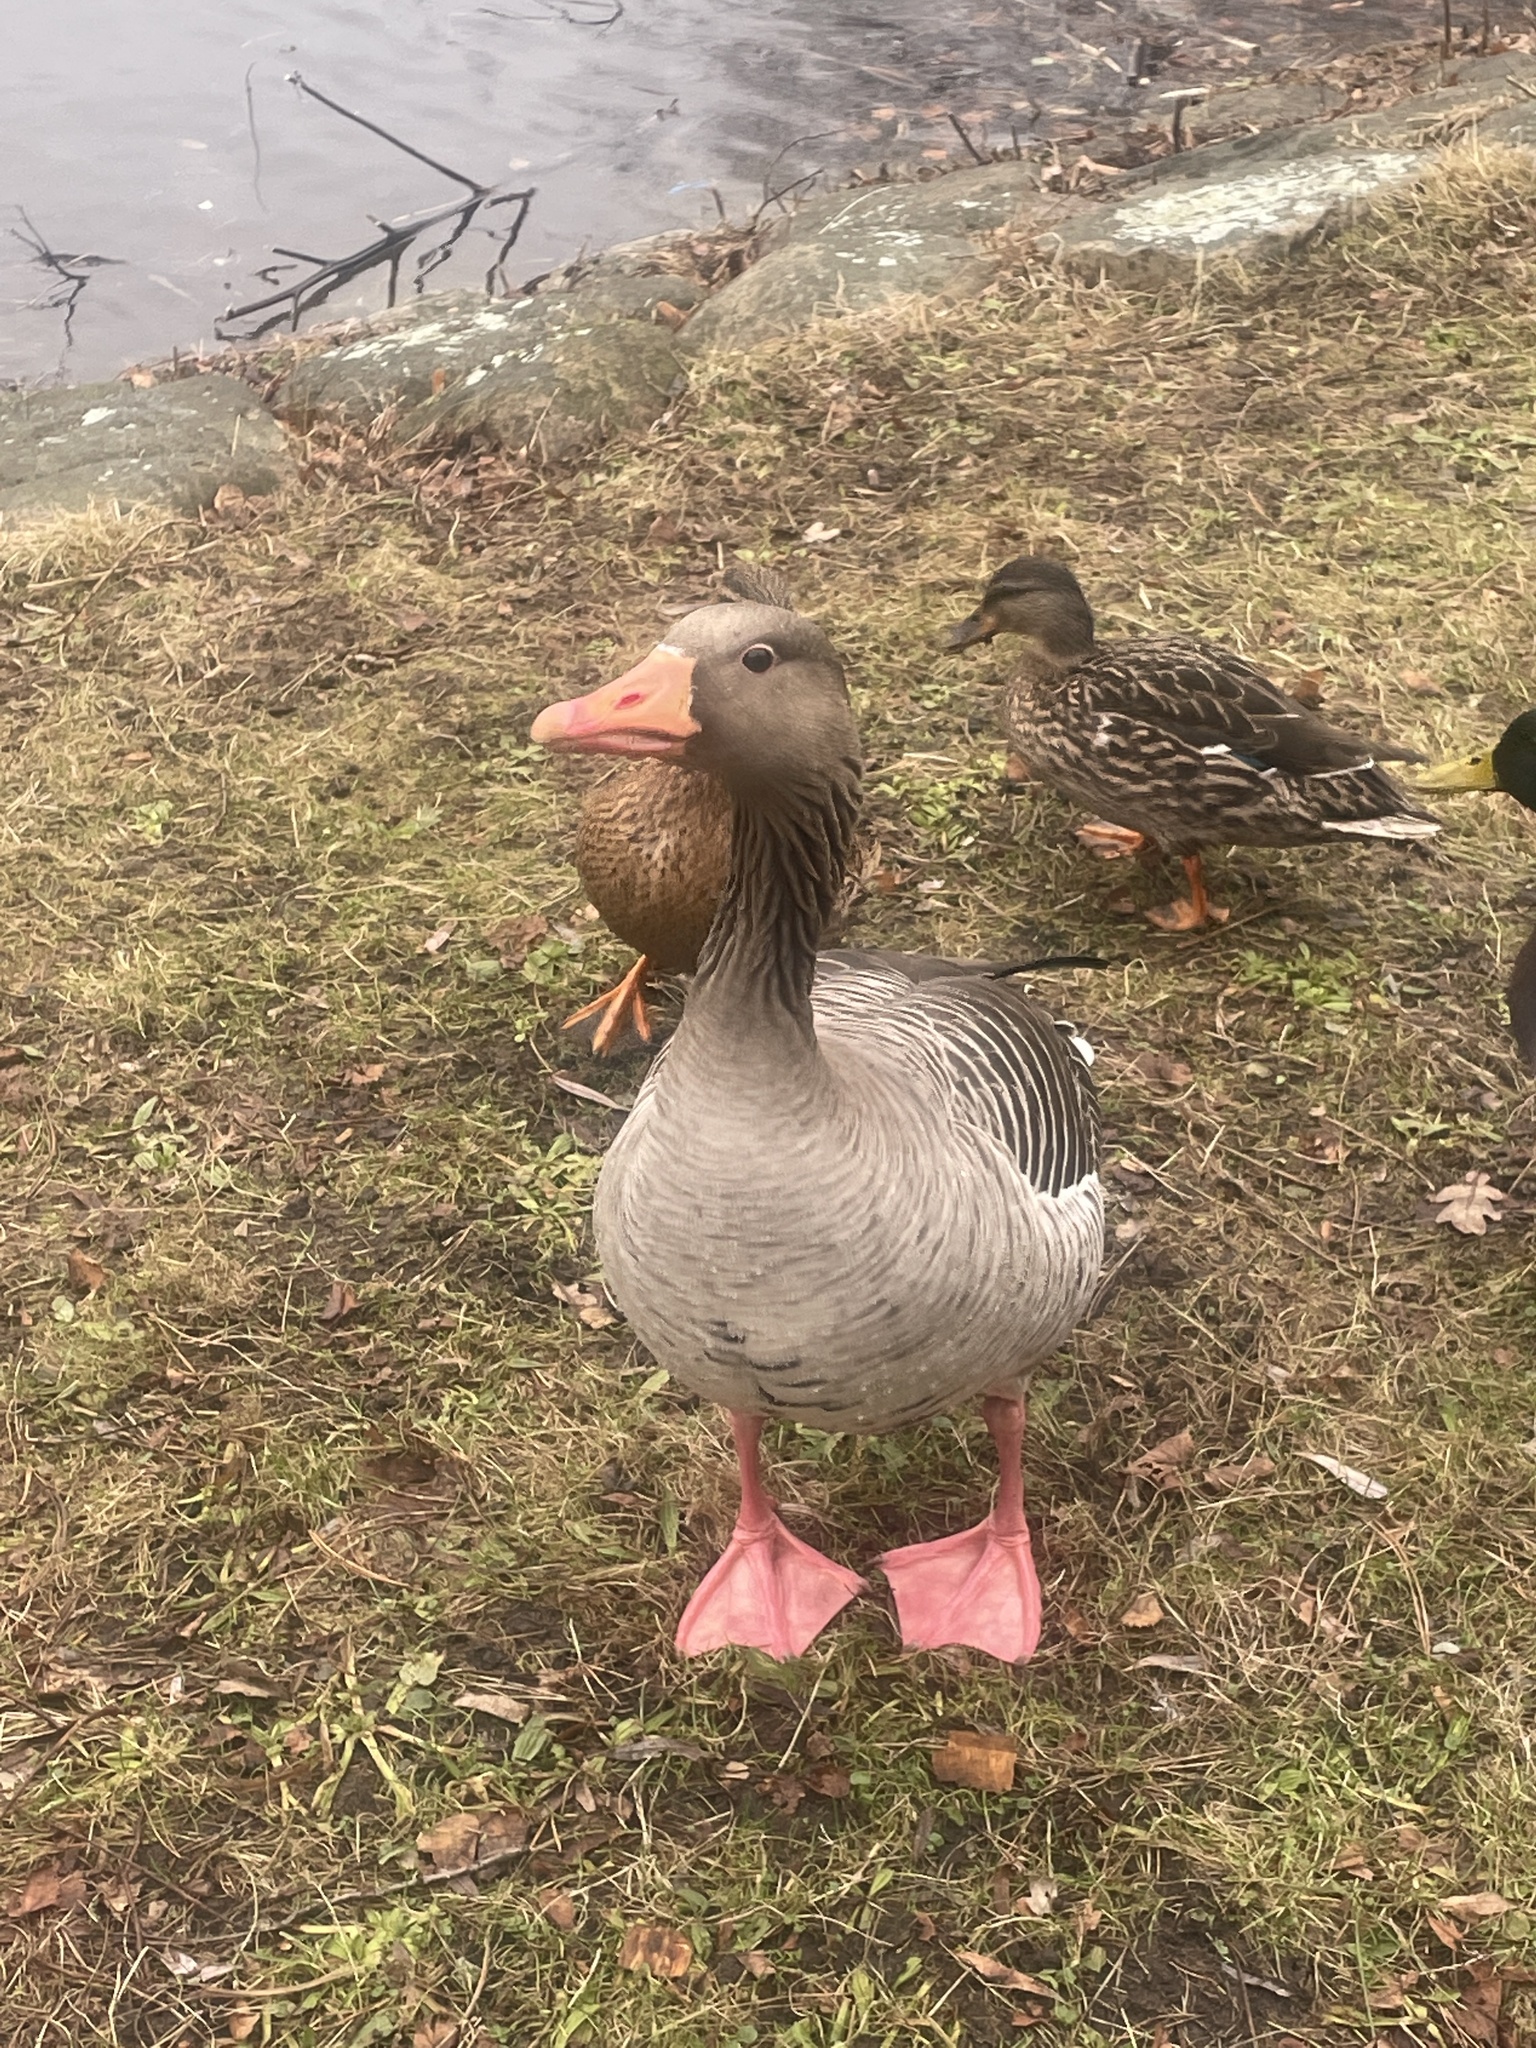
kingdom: Animalia
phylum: Chordata
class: Aves
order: Anseriformes
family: Anatidae
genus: Anser
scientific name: Anser anser
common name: Greylag goose
